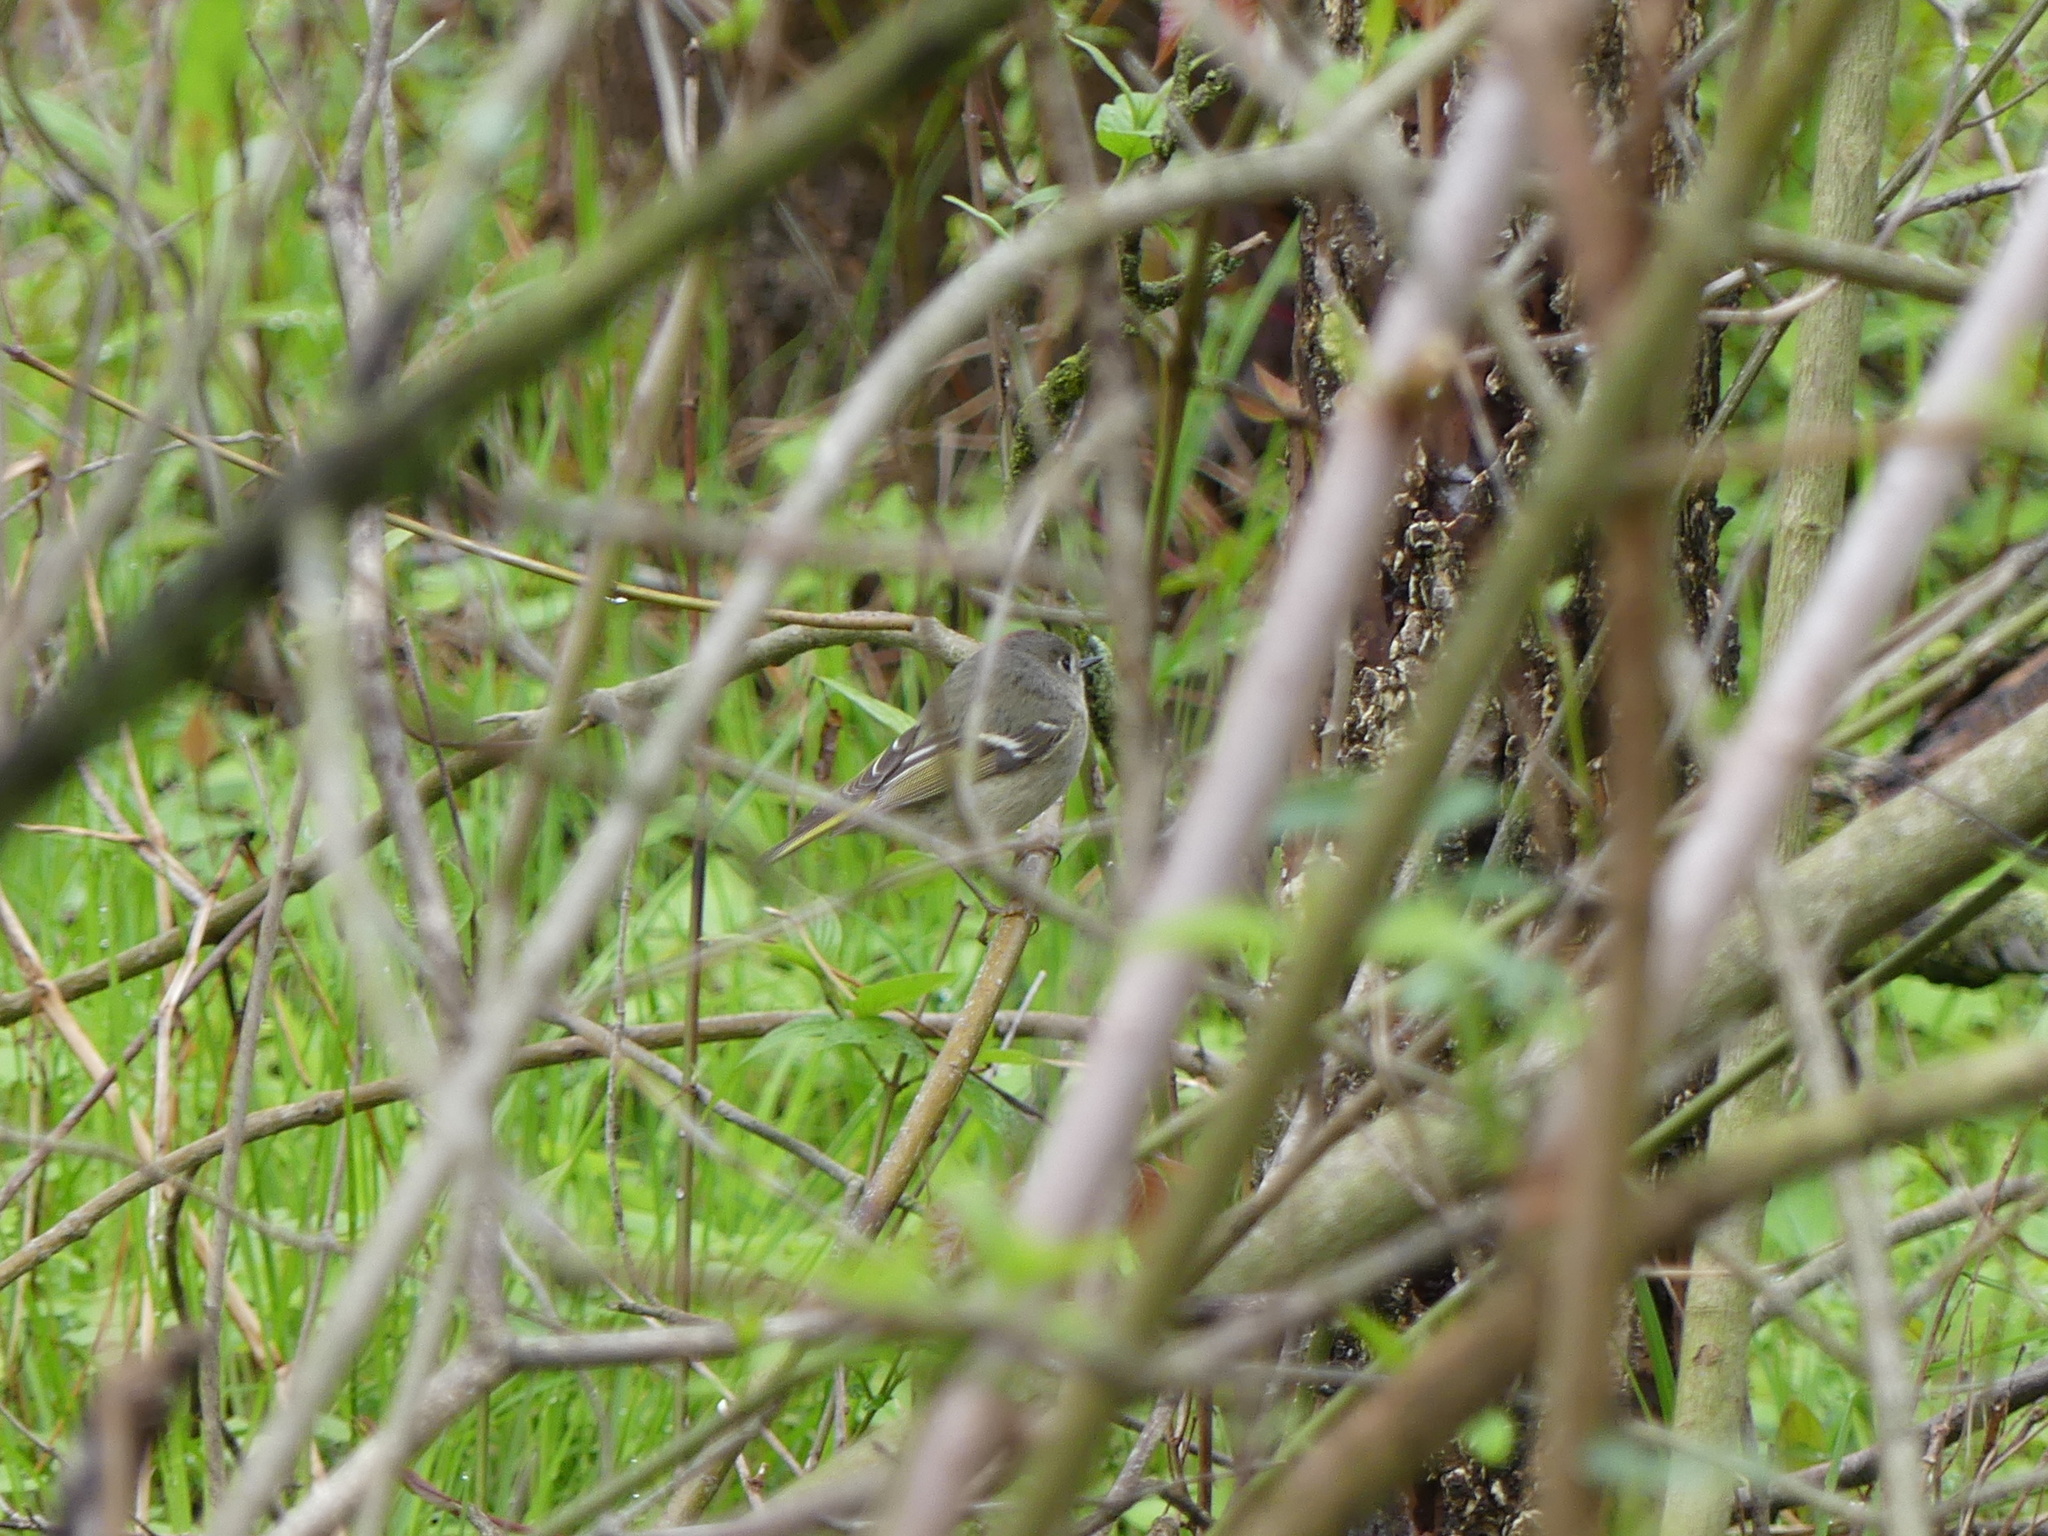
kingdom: Animalia
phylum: Chordata
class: Aves
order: Passeriformes
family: Regulidae
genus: Regulus
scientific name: Regulus calendula
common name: Ruby-crowned kinglet
